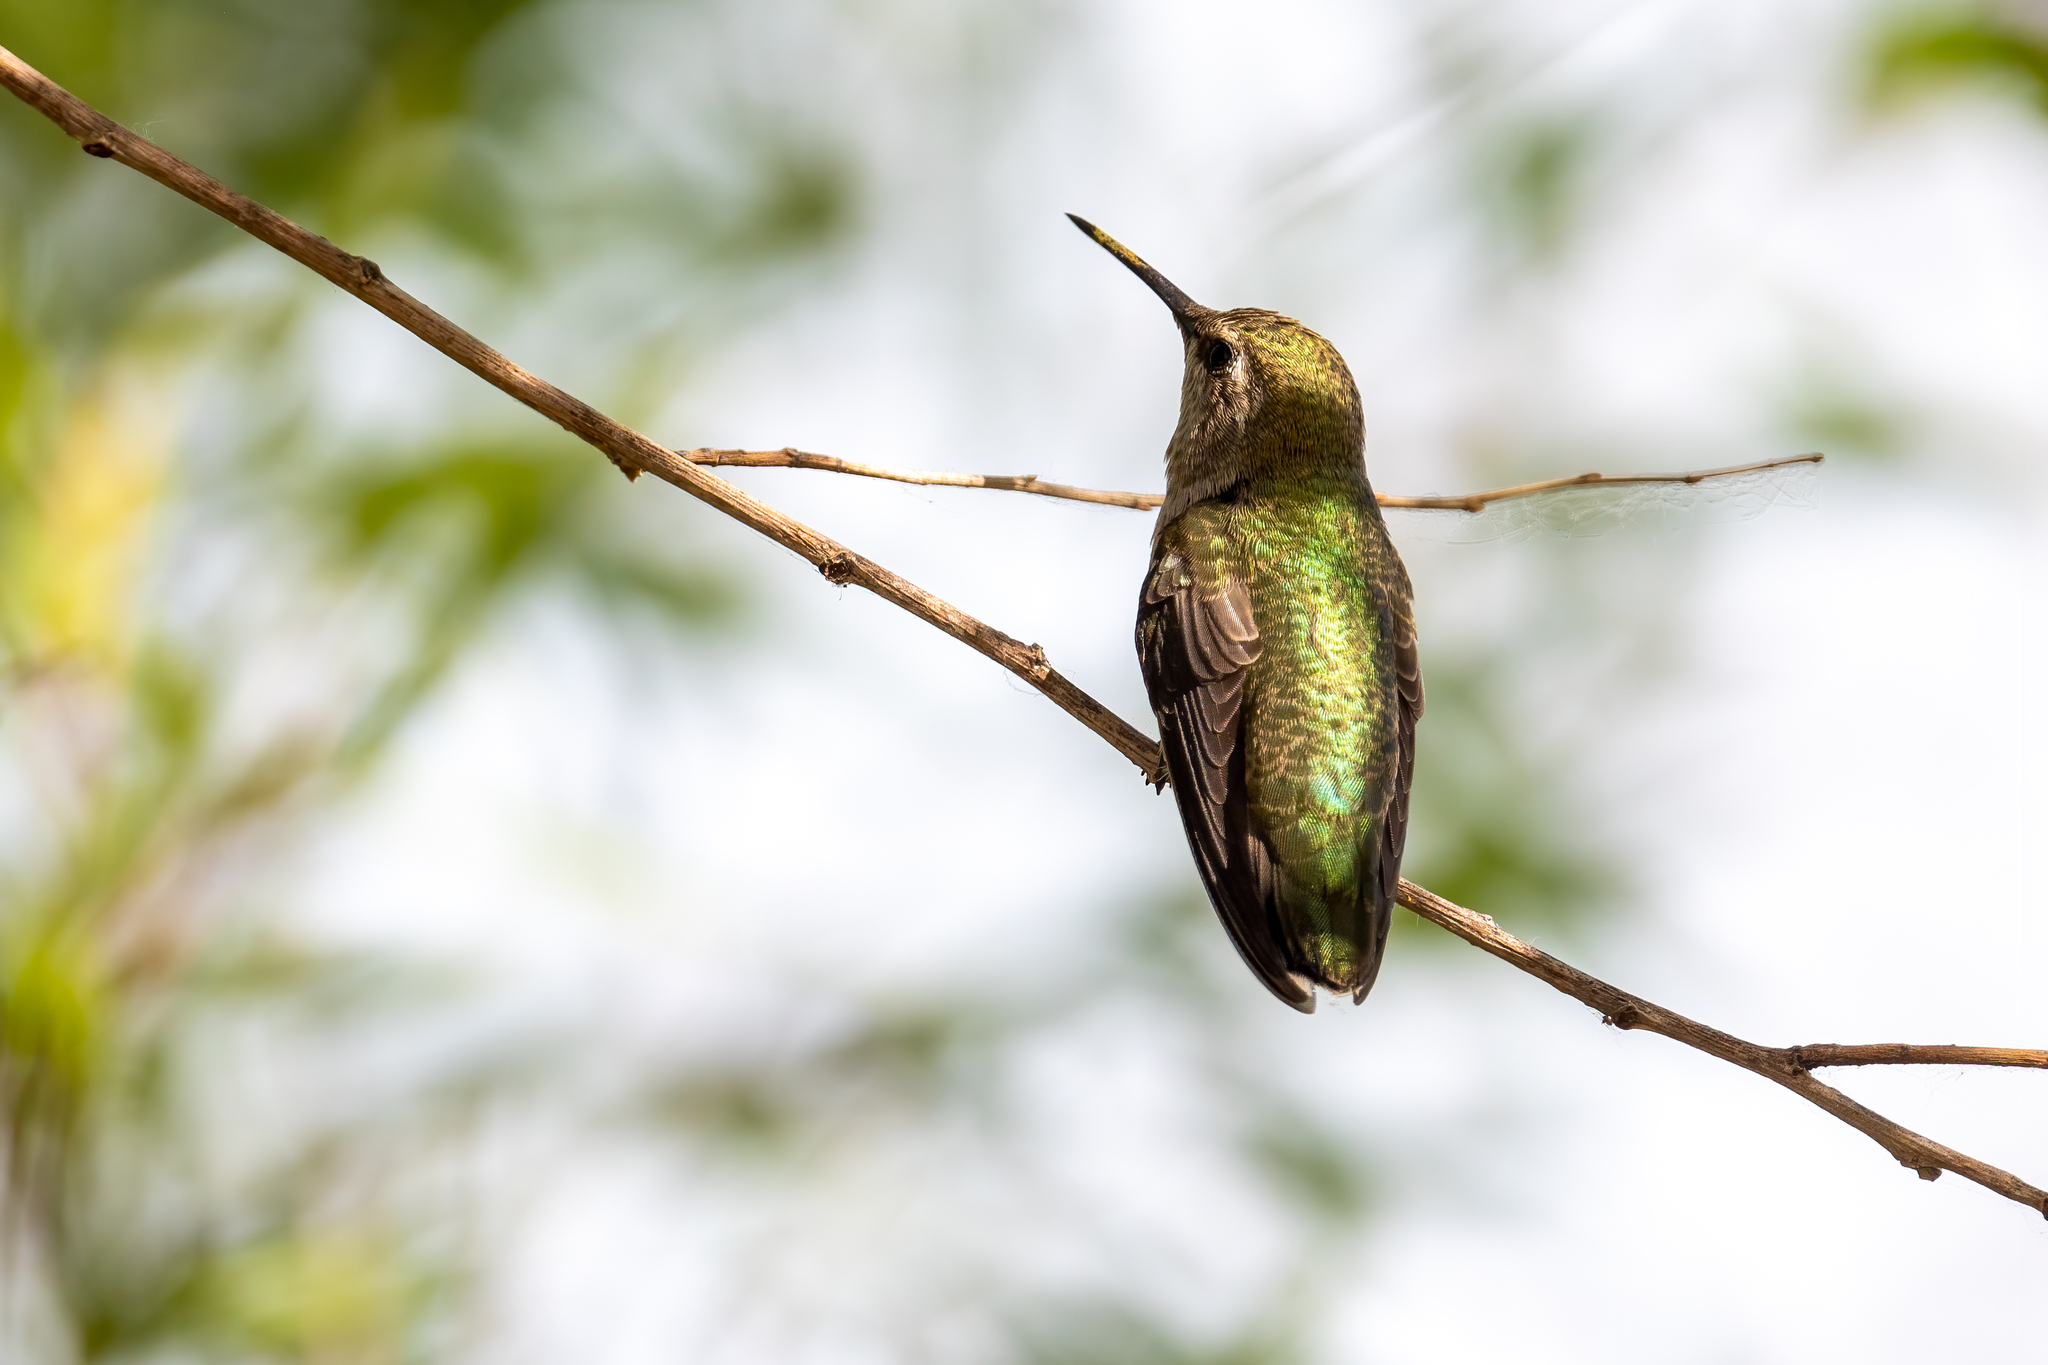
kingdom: Animalia
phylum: Chordata
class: Aves
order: Apodiformes
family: Trochilidae
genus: Calypte
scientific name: Calypte anna
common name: Anna's hummingbird
